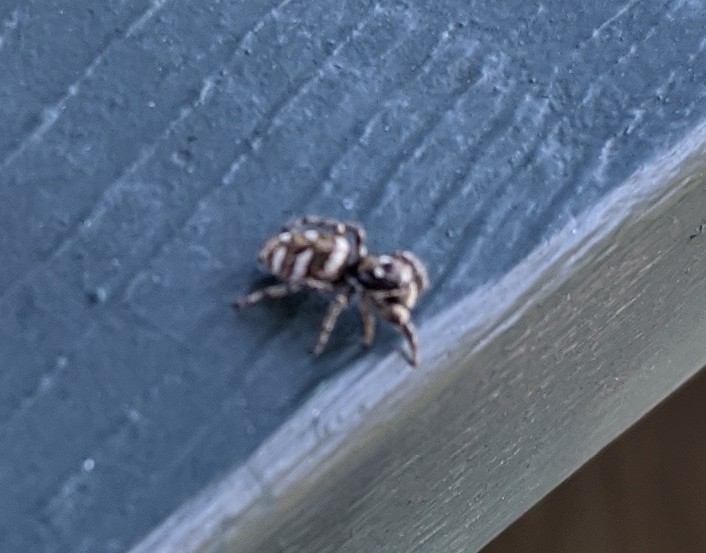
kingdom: Animalia
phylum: Arthropoda
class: Arachnida
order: Araneae
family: Salticidae
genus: Salticus
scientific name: Salticus scenicus
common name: Zebra jumper
